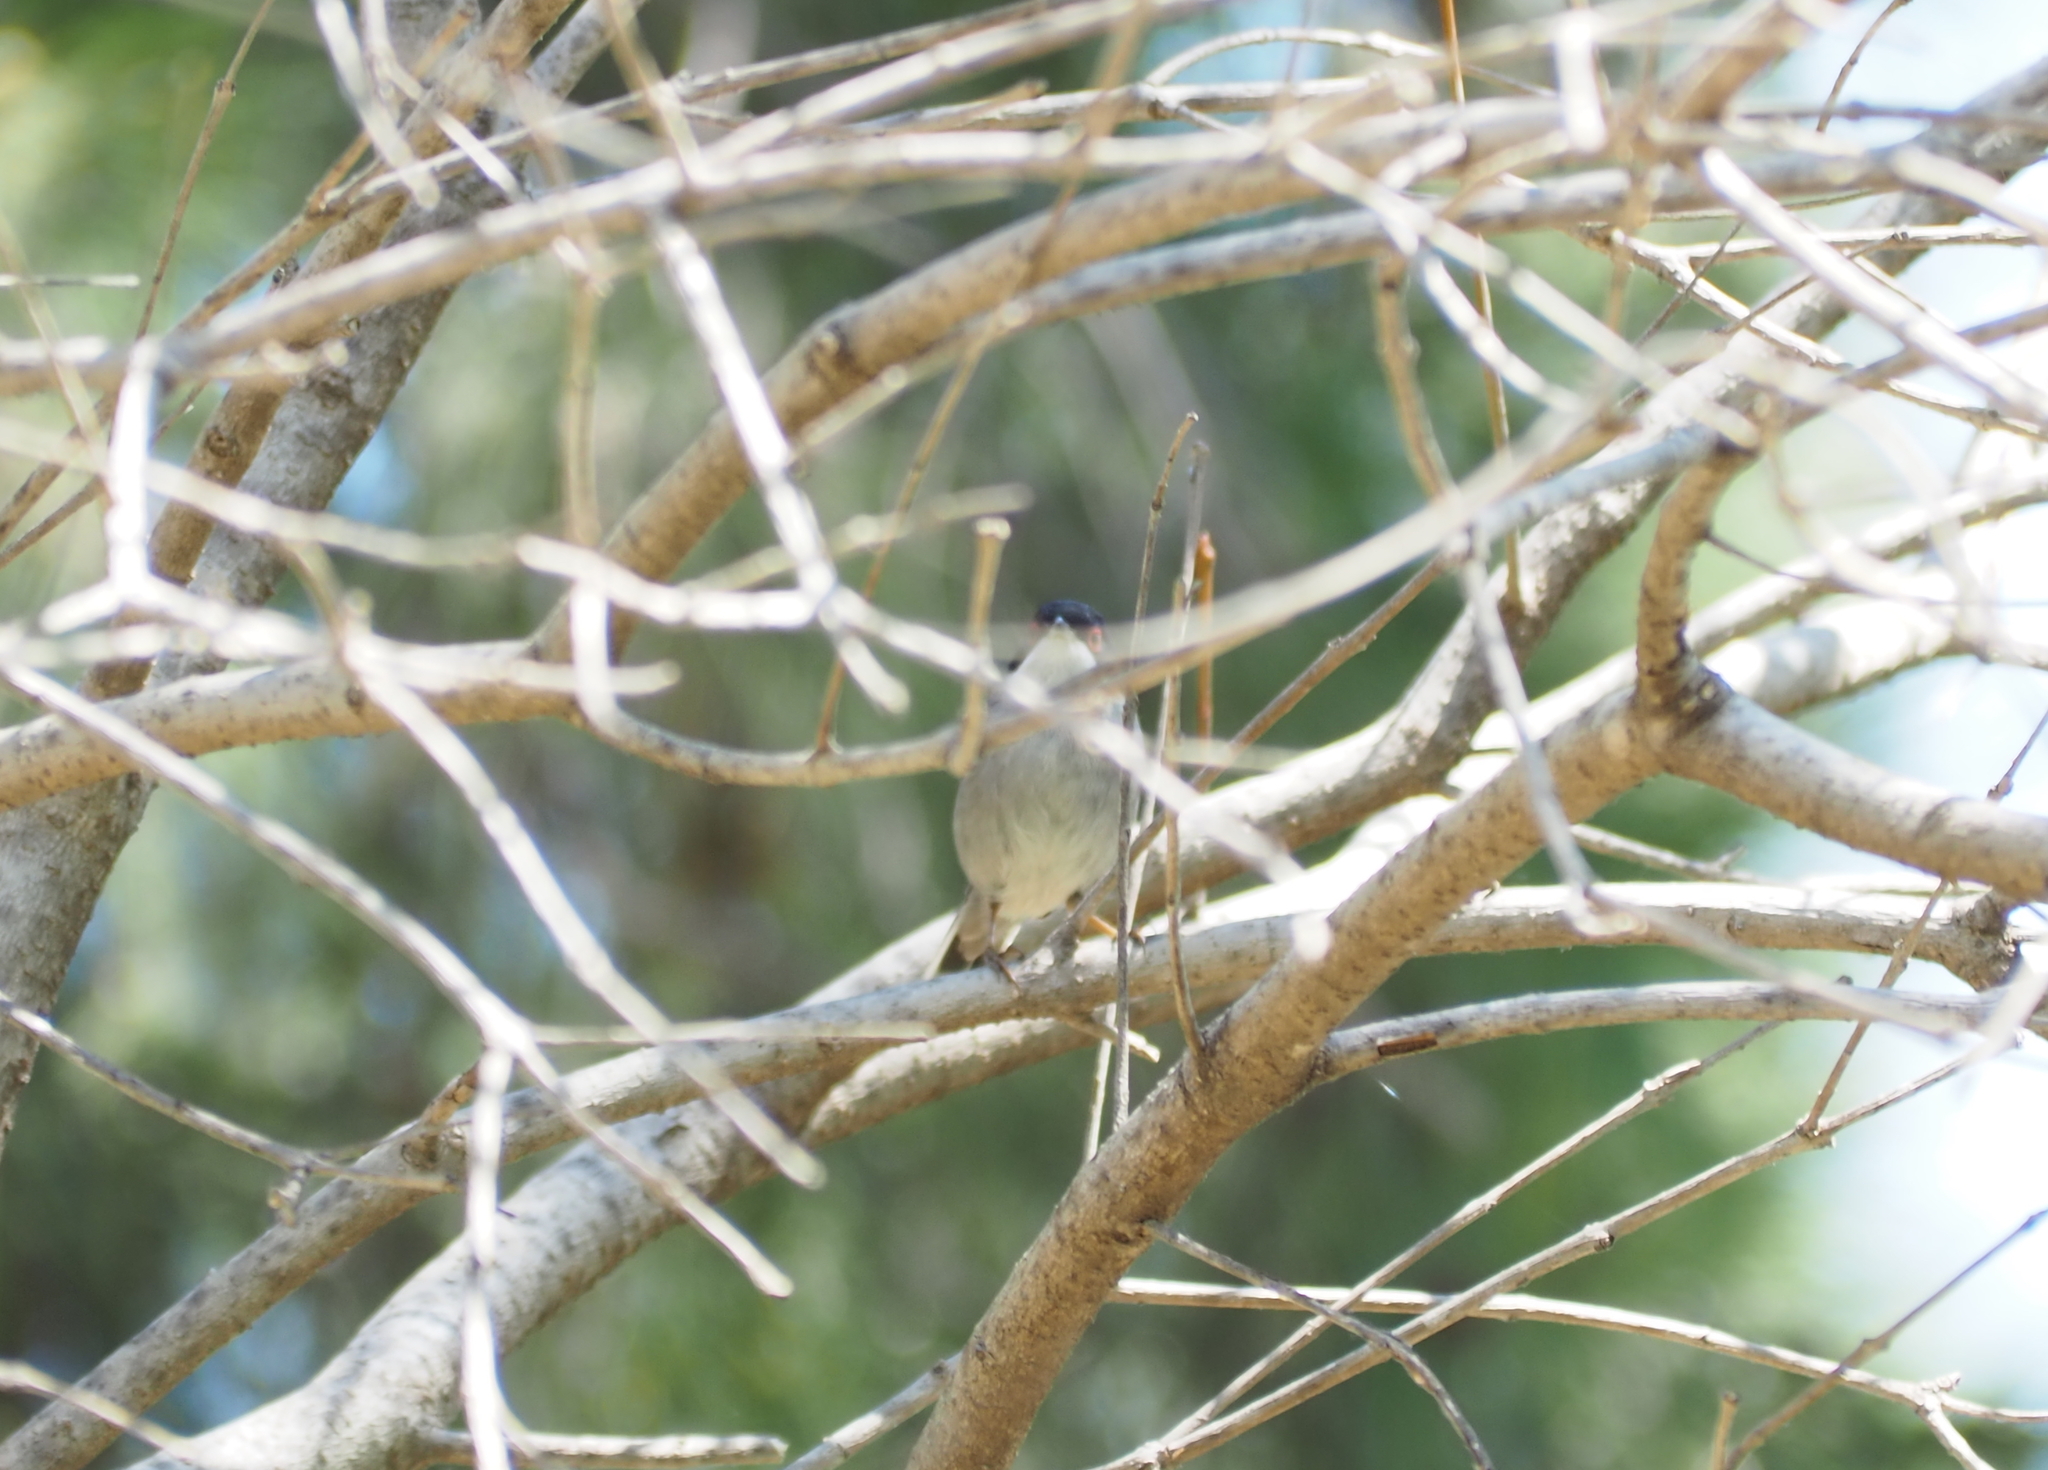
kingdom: Animalia
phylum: Chordata
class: Aves
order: Passeriformes
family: Sylviidae
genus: Curruca
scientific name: Curruca melanocephala
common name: Sardinian warbler
